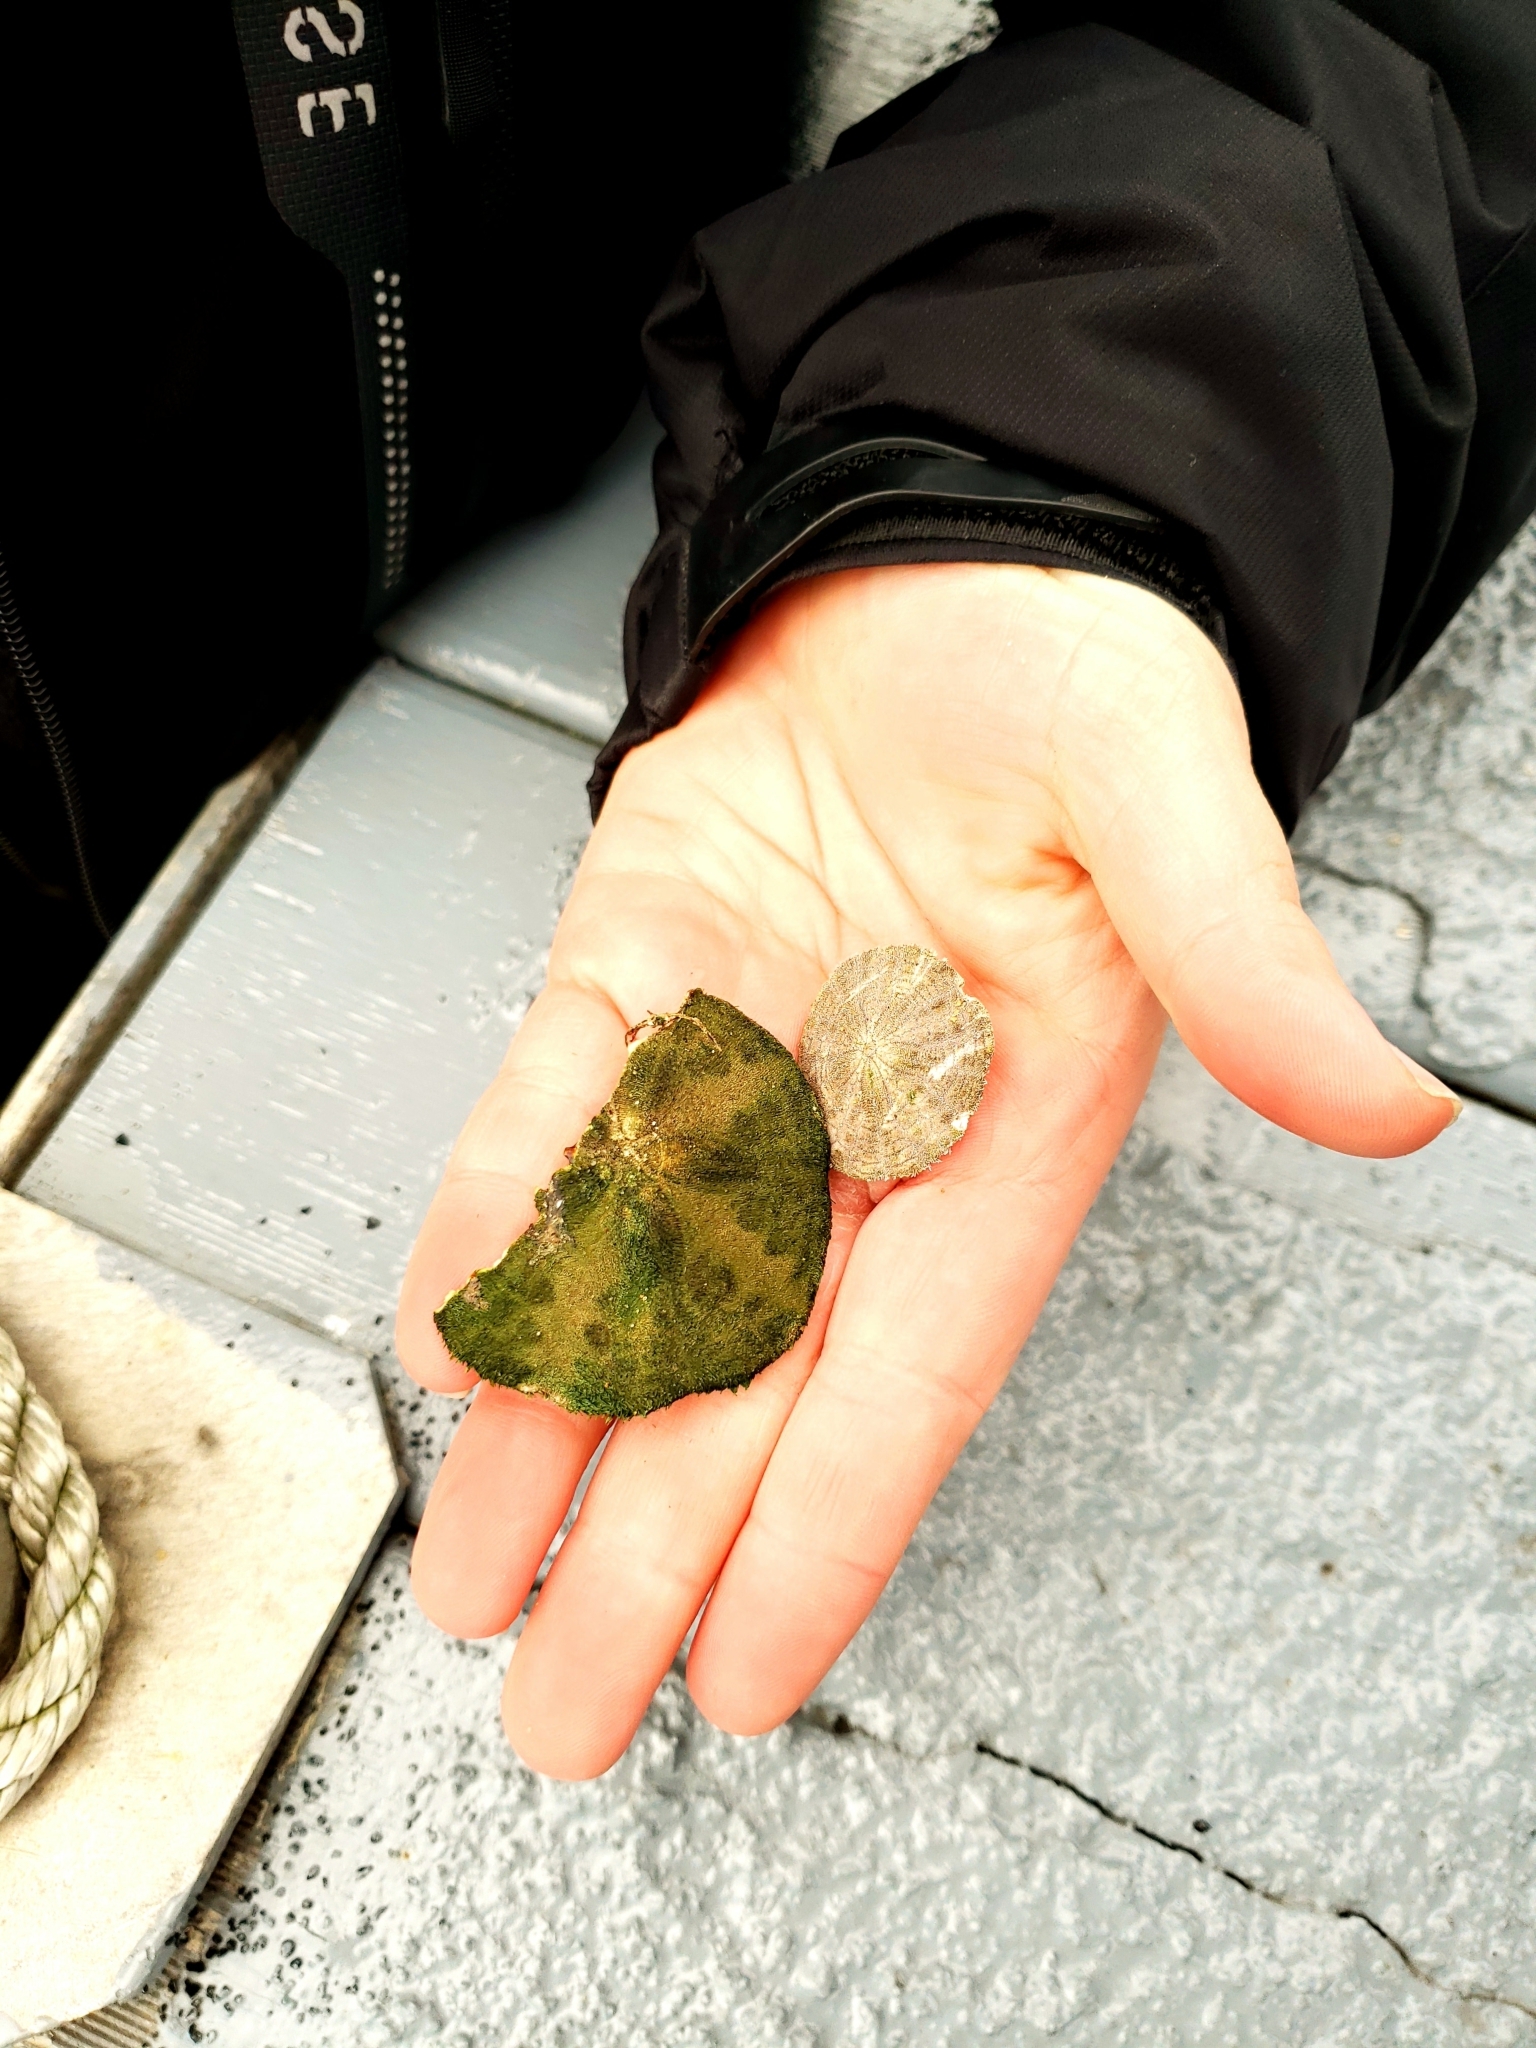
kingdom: Animalia
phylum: Echinodermata
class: Echinoidea
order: Echinolampadacea
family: Echinarachniidae
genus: Echinarachnius
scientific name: Echinarachnius parma
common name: Common sand dollar
